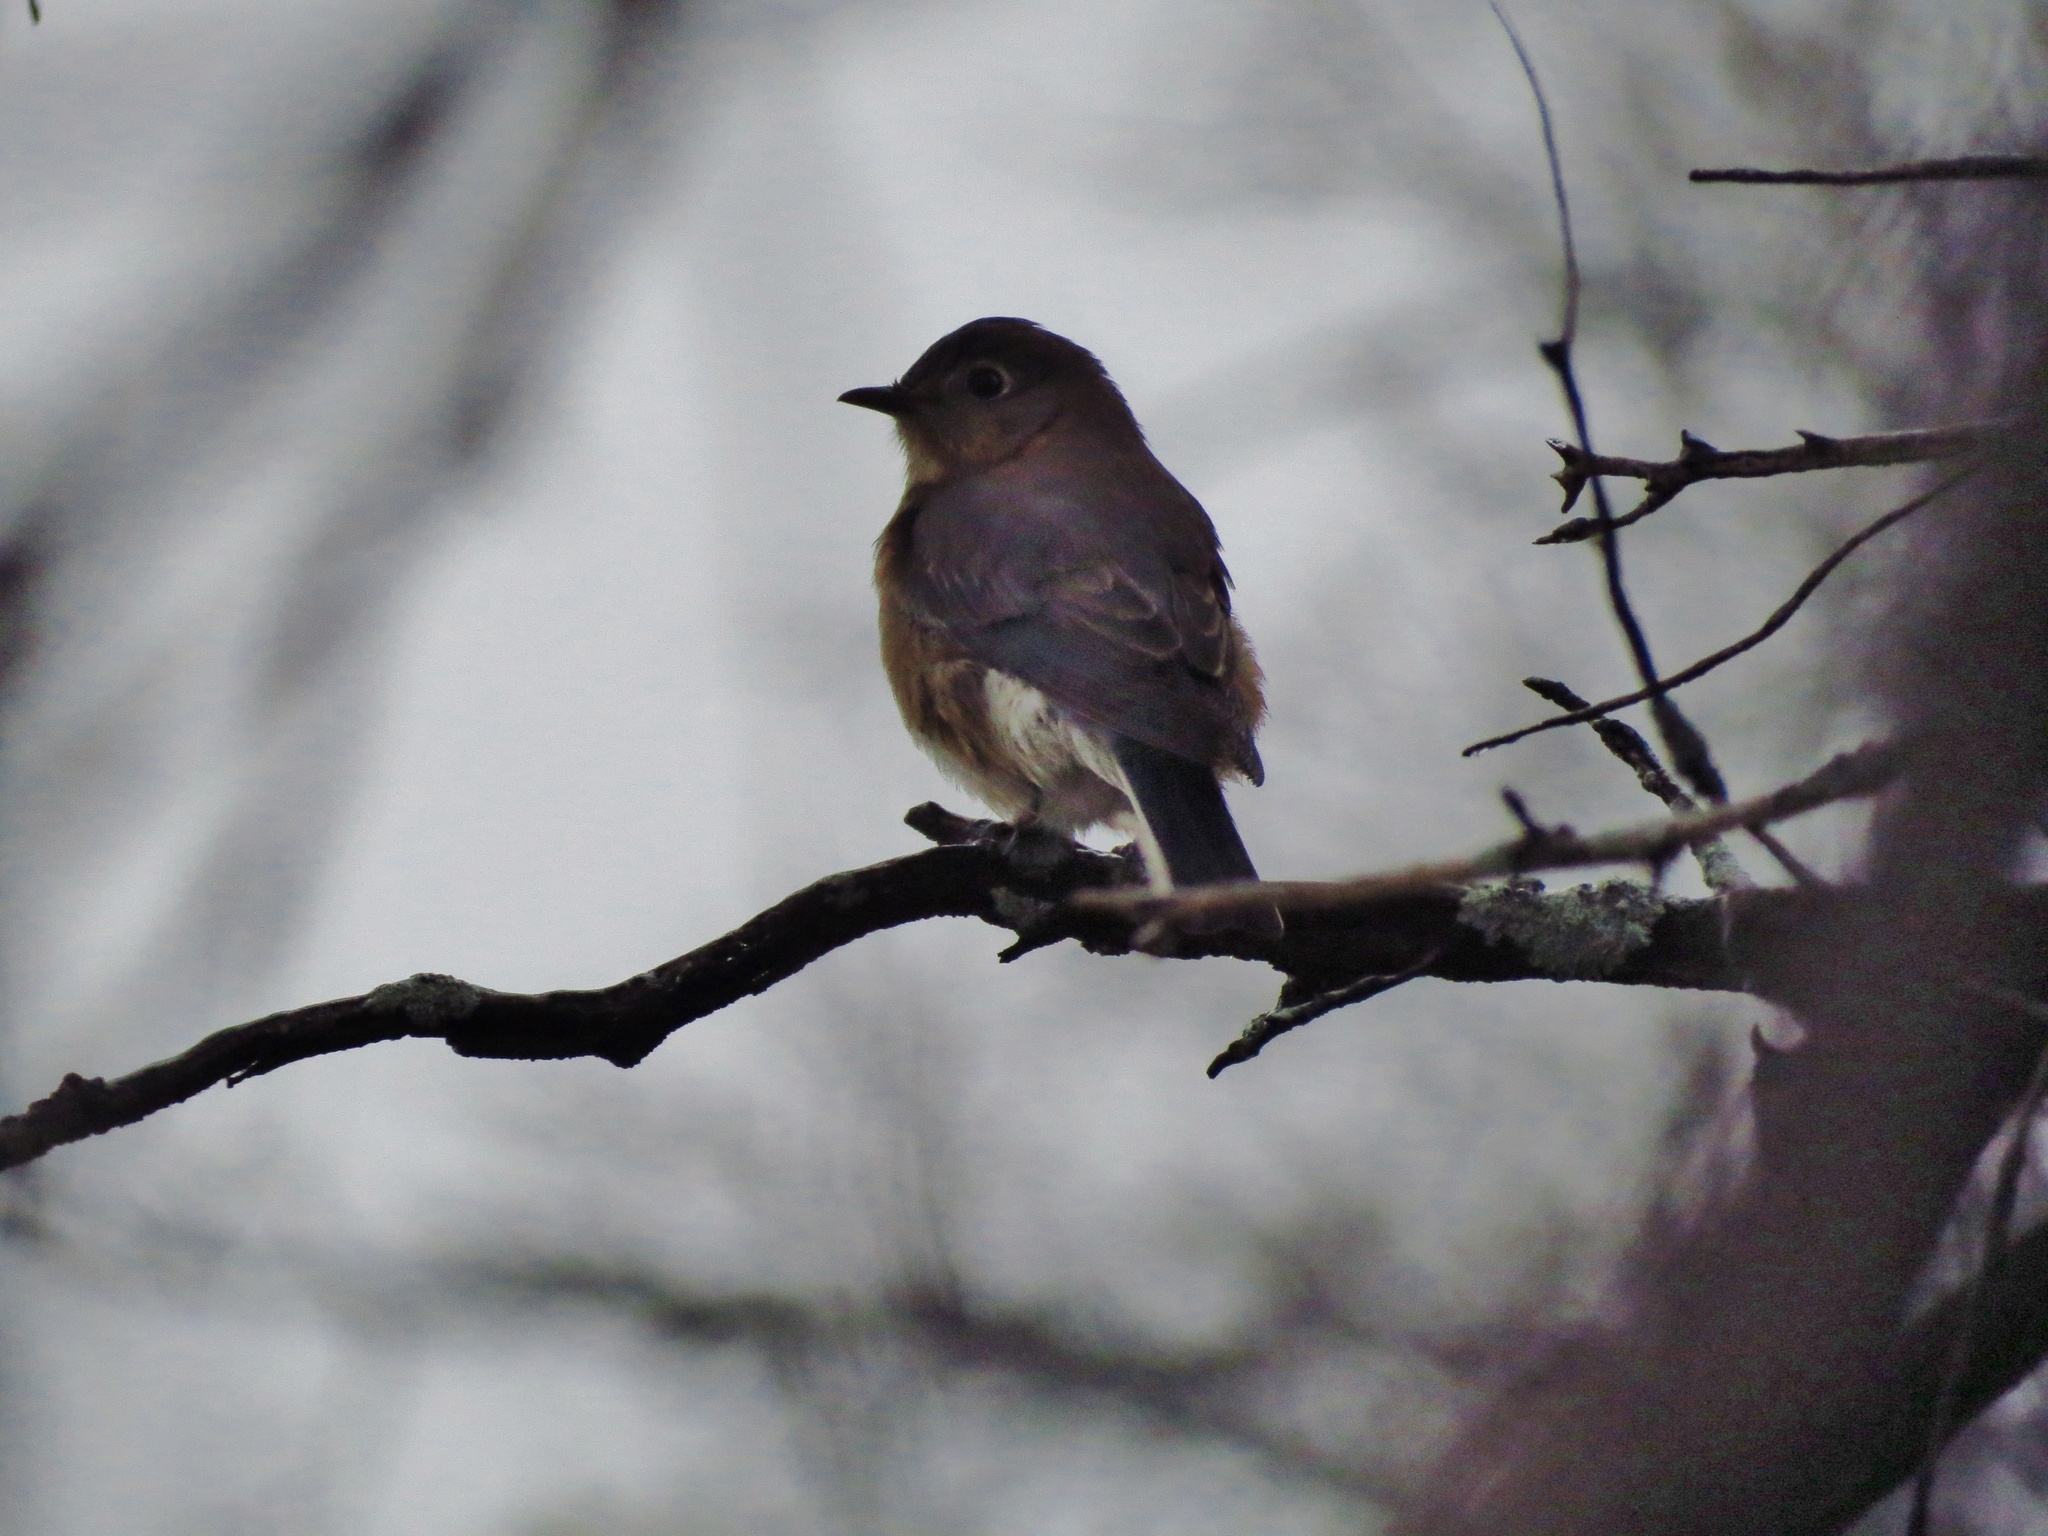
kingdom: Animalia
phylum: Chordata
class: Aves
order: Passeriformes
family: Turdidae
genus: Sialia
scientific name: Sialia sialis
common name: Eastern bluebird
